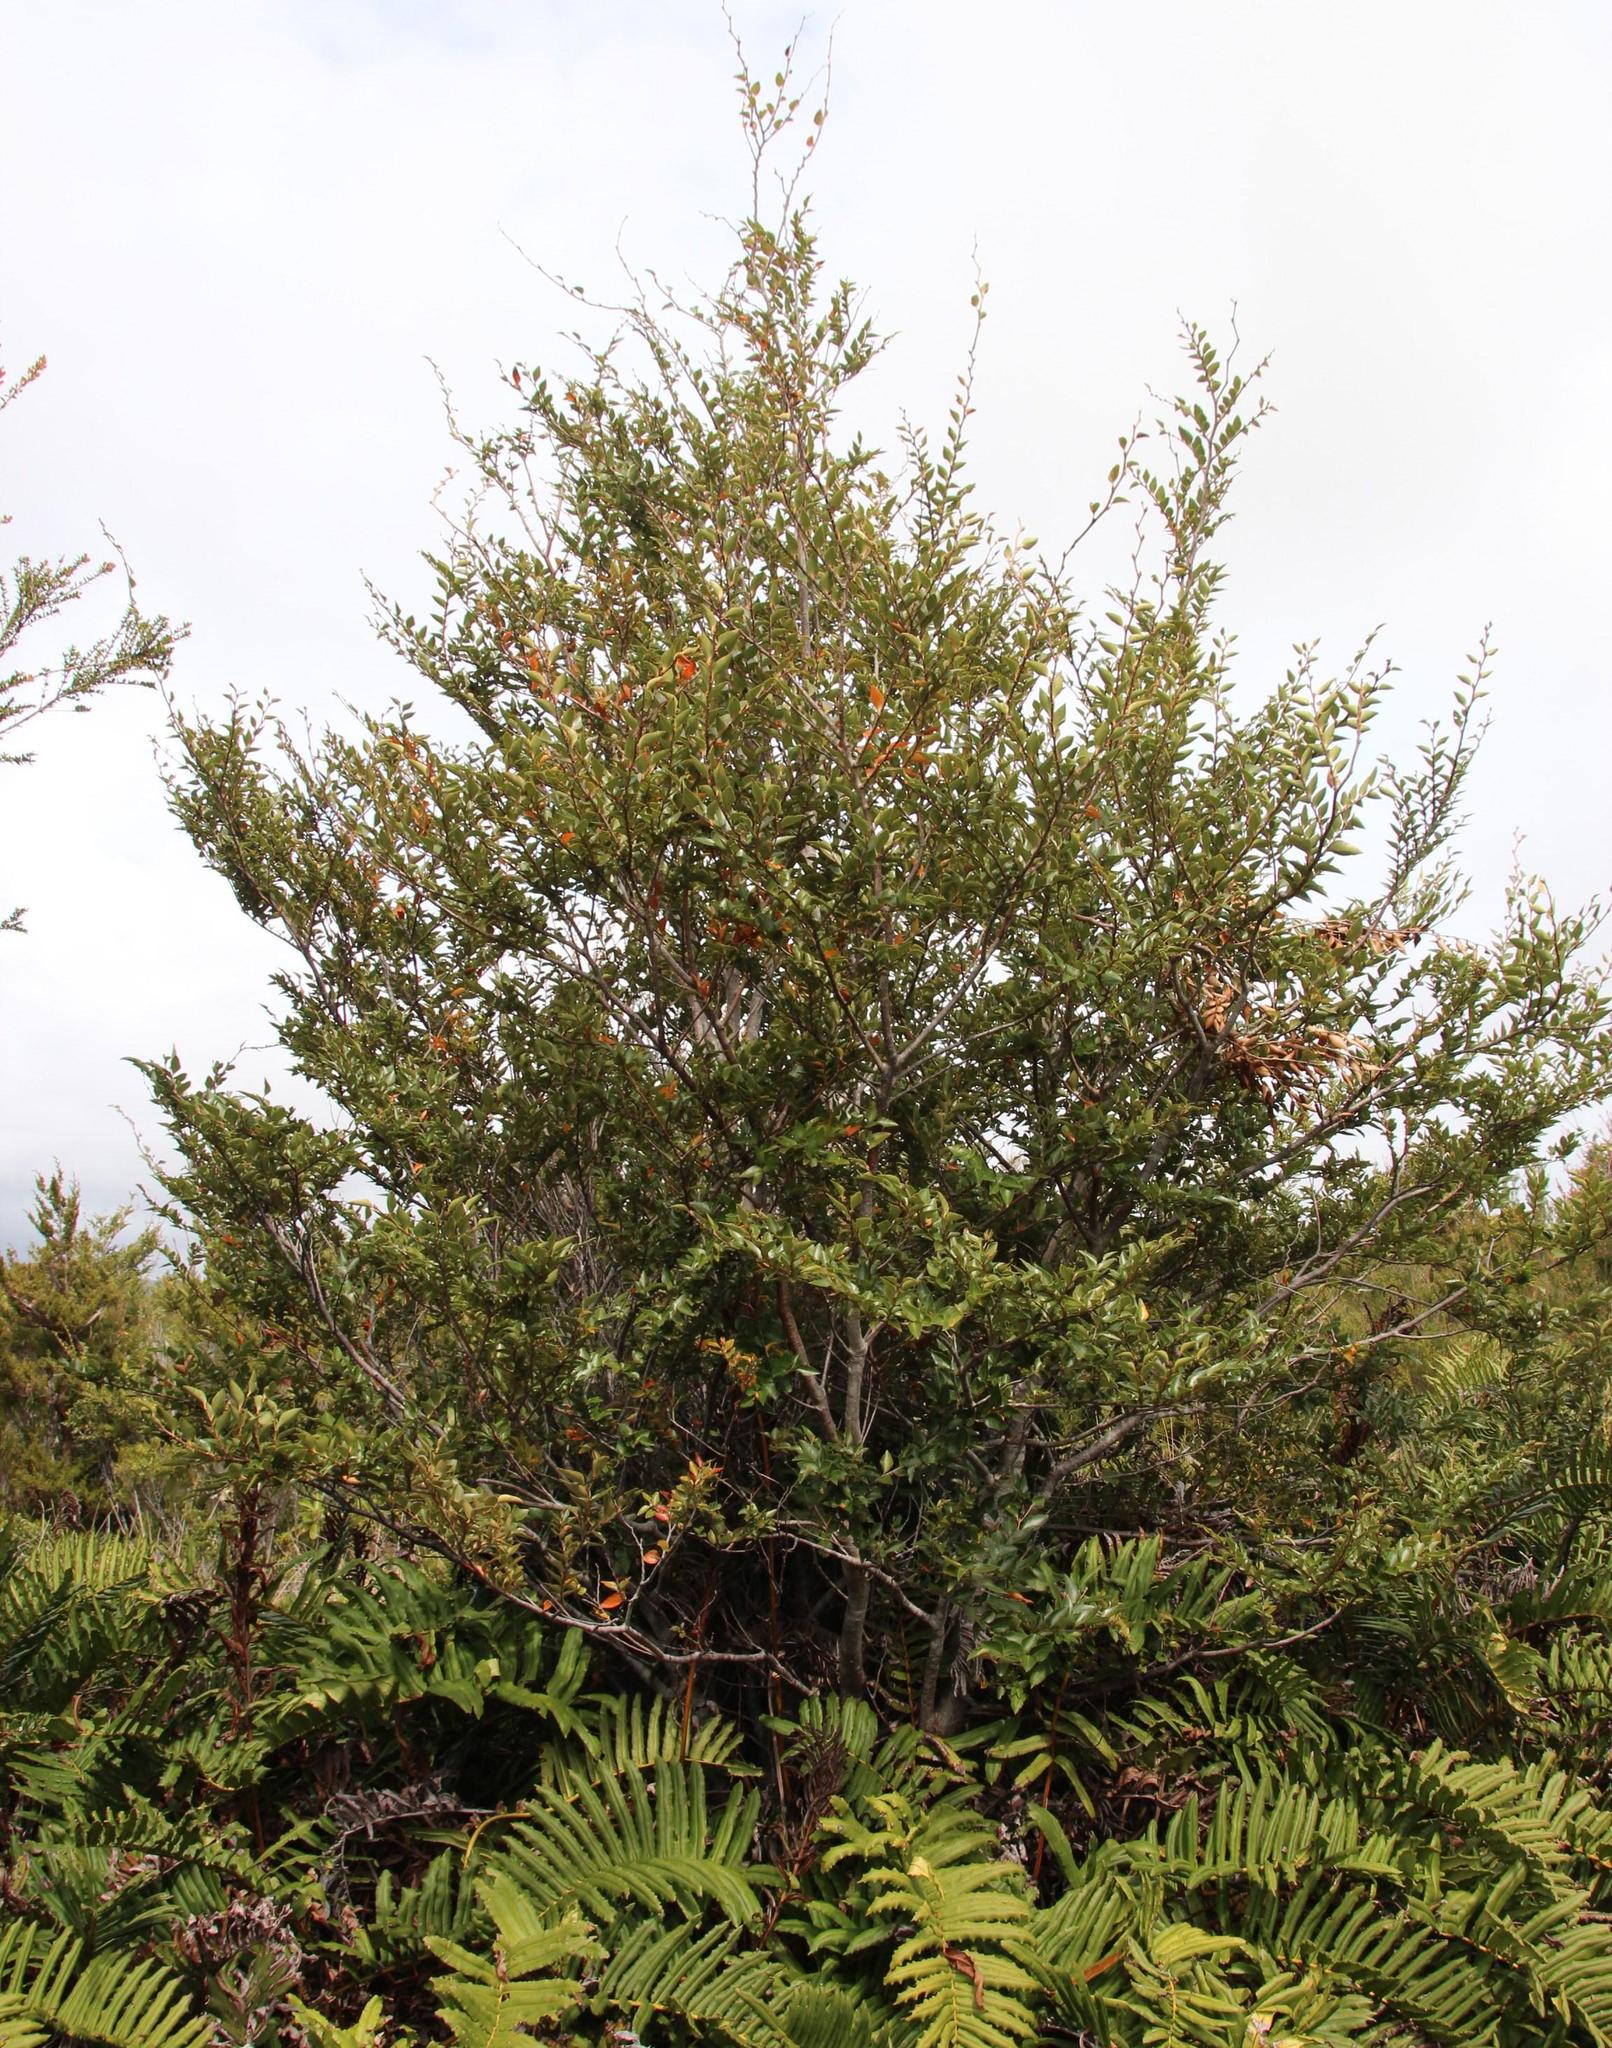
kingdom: Plantae
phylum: Tracheophyta
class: Magnoliopsida
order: Fagales
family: Nothofagaceae
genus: Nothofagus
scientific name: Nothofagus nitida
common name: Chiloé's coigue
